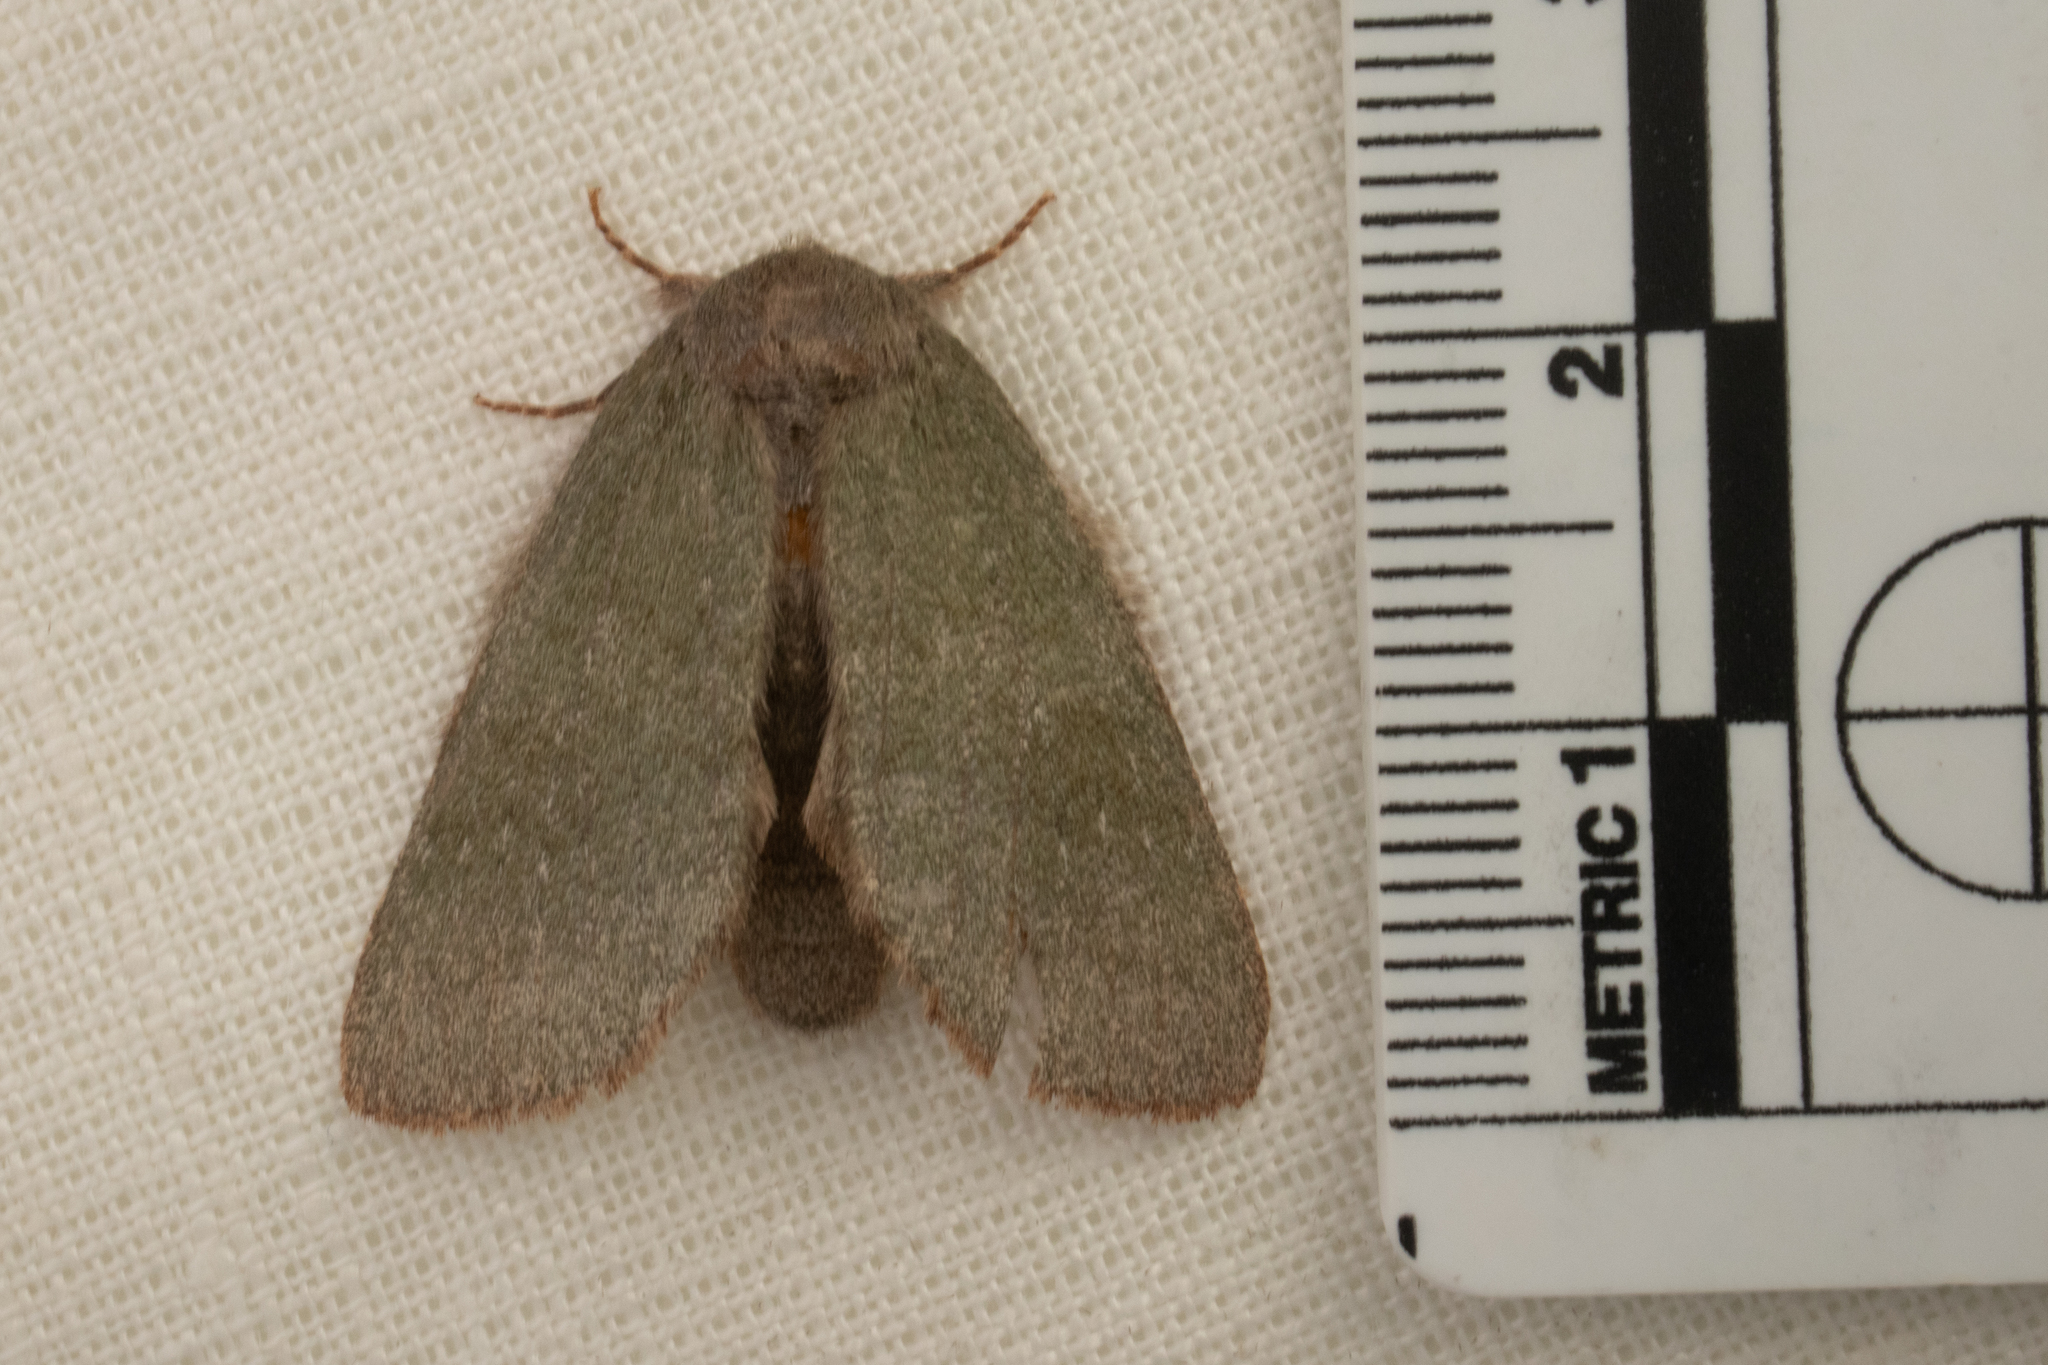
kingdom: Animalia
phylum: Arthropoda
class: Insecta
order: Lepidoptera
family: Notodontidae
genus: Misogada
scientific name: Misogada unicolor
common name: Drab prominent
